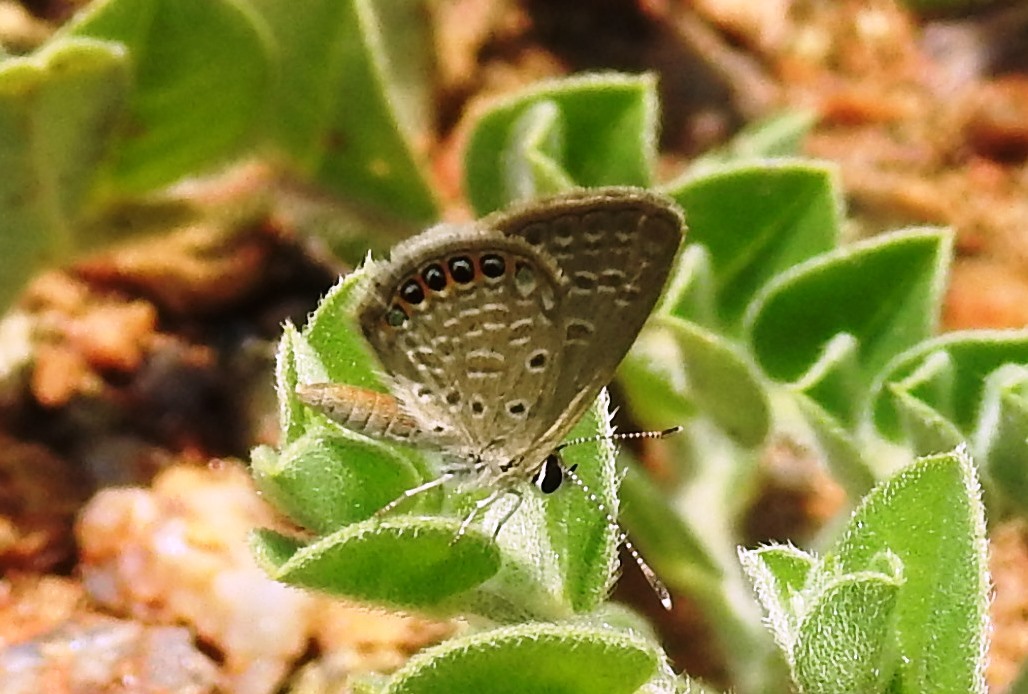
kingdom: Animalia
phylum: Arthropoda
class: Insecta
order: Lepidoptera
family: Lycaenidae
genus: Freyeria
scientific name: Freyeria putli
